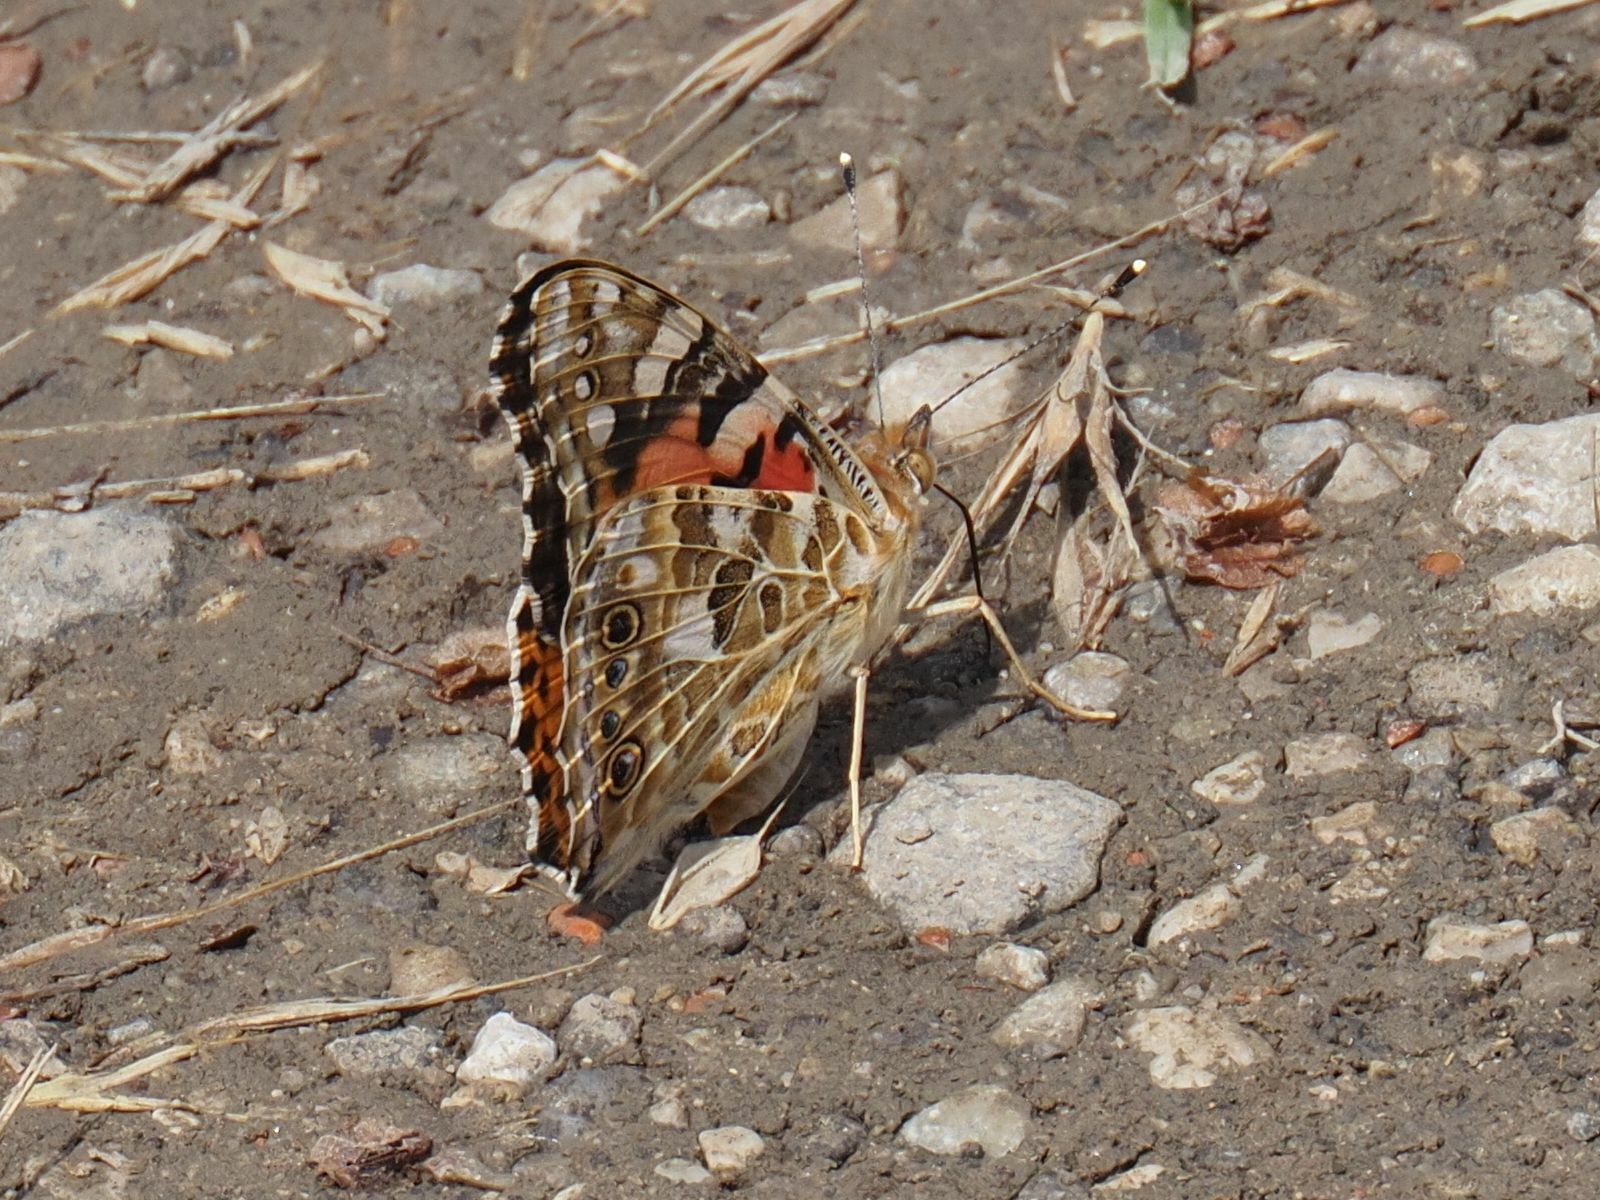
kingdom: Animalia
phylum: Arthropoda
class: Insecta
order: Lepidoptera
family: Nymphalidae
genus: Vanessa
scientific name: Vanessa cardui
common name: Painted lady
